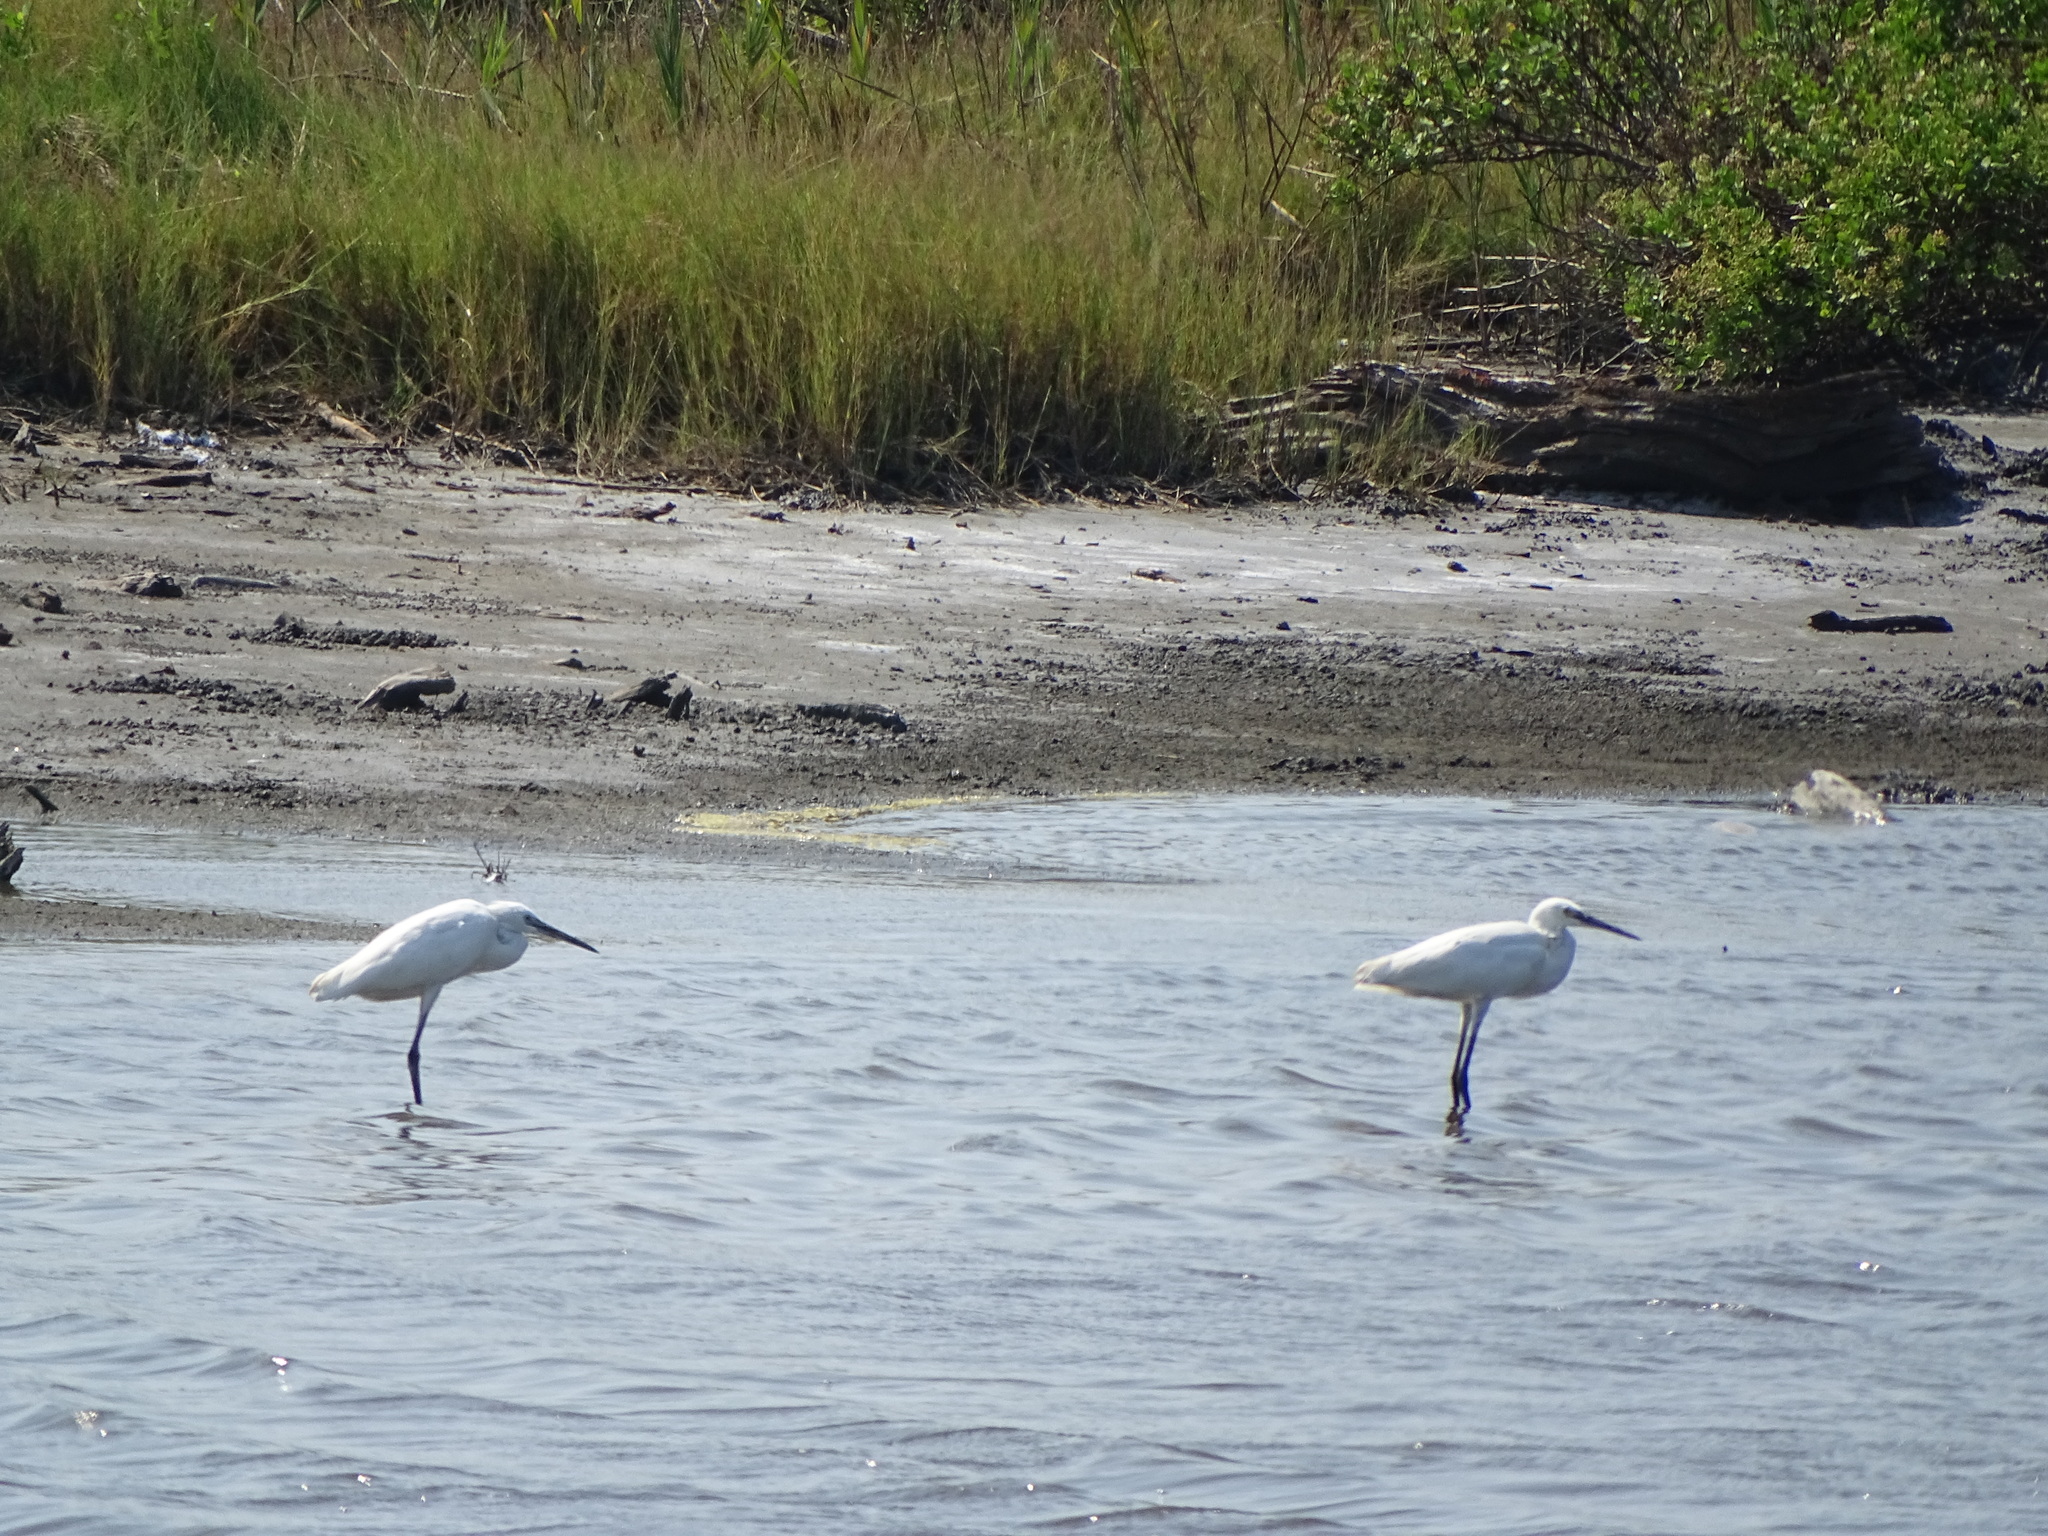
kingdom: Animalia
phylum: Chordata
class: Aves
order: Pelecaniformes
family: Ardeidae
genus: Egretta
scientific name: Egretta garzetta
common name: Little egret
